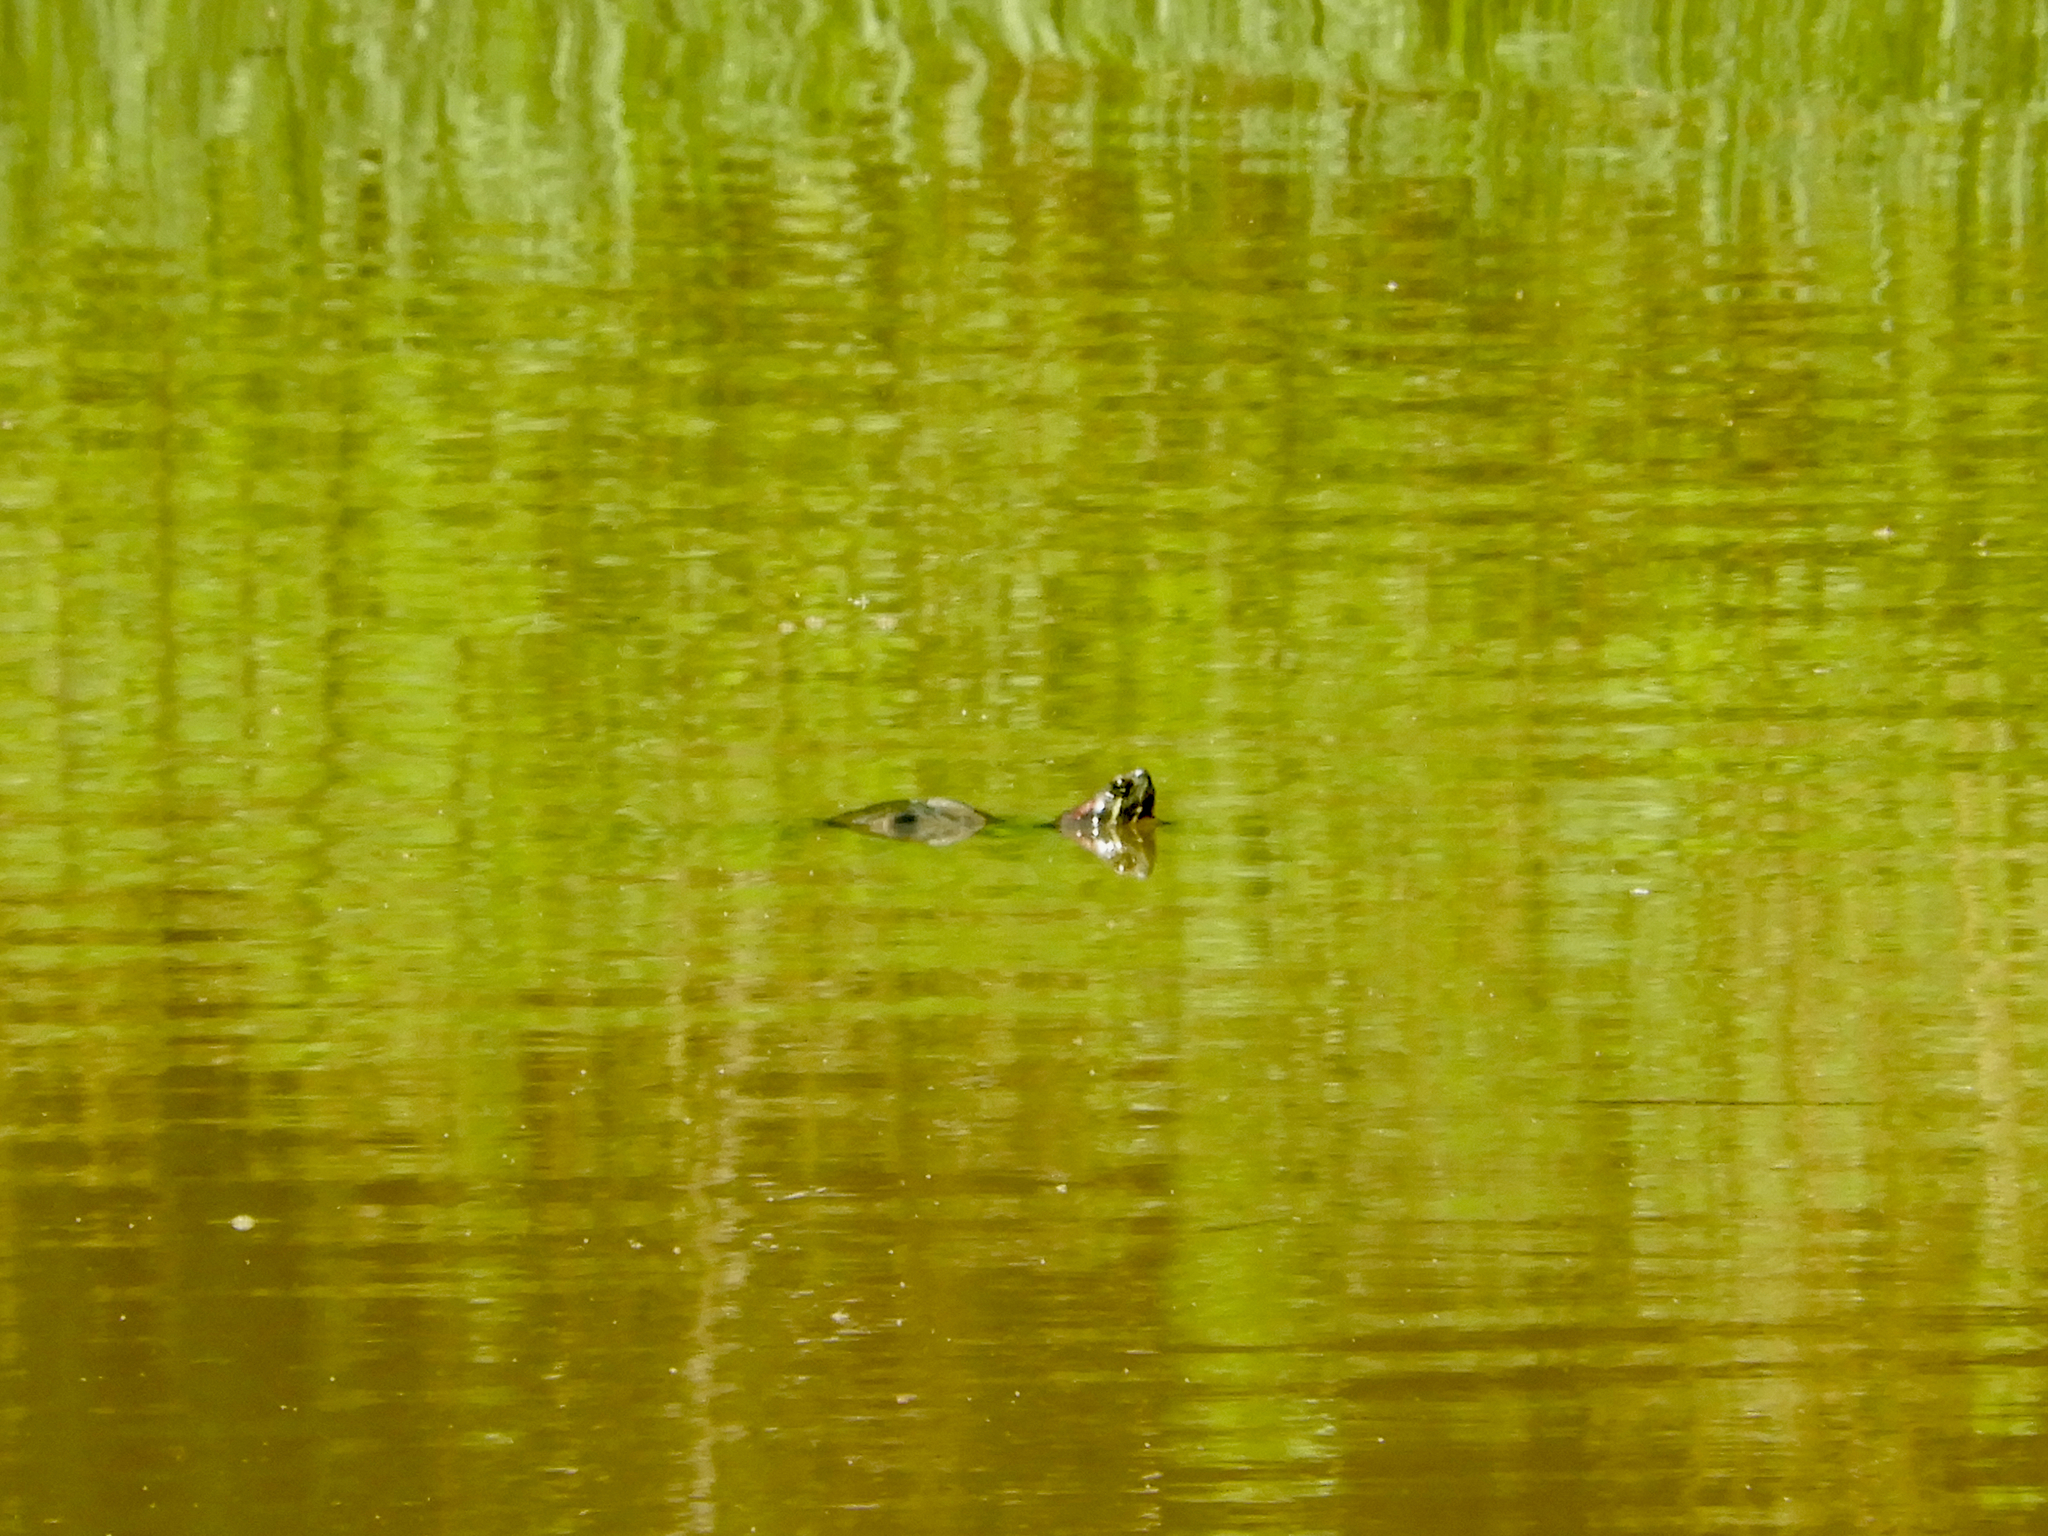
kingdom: Animalia
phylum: Chordata
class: Testudines
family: Emydidae
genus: Trachemys
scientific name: Trachemys scripta
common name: Slider
